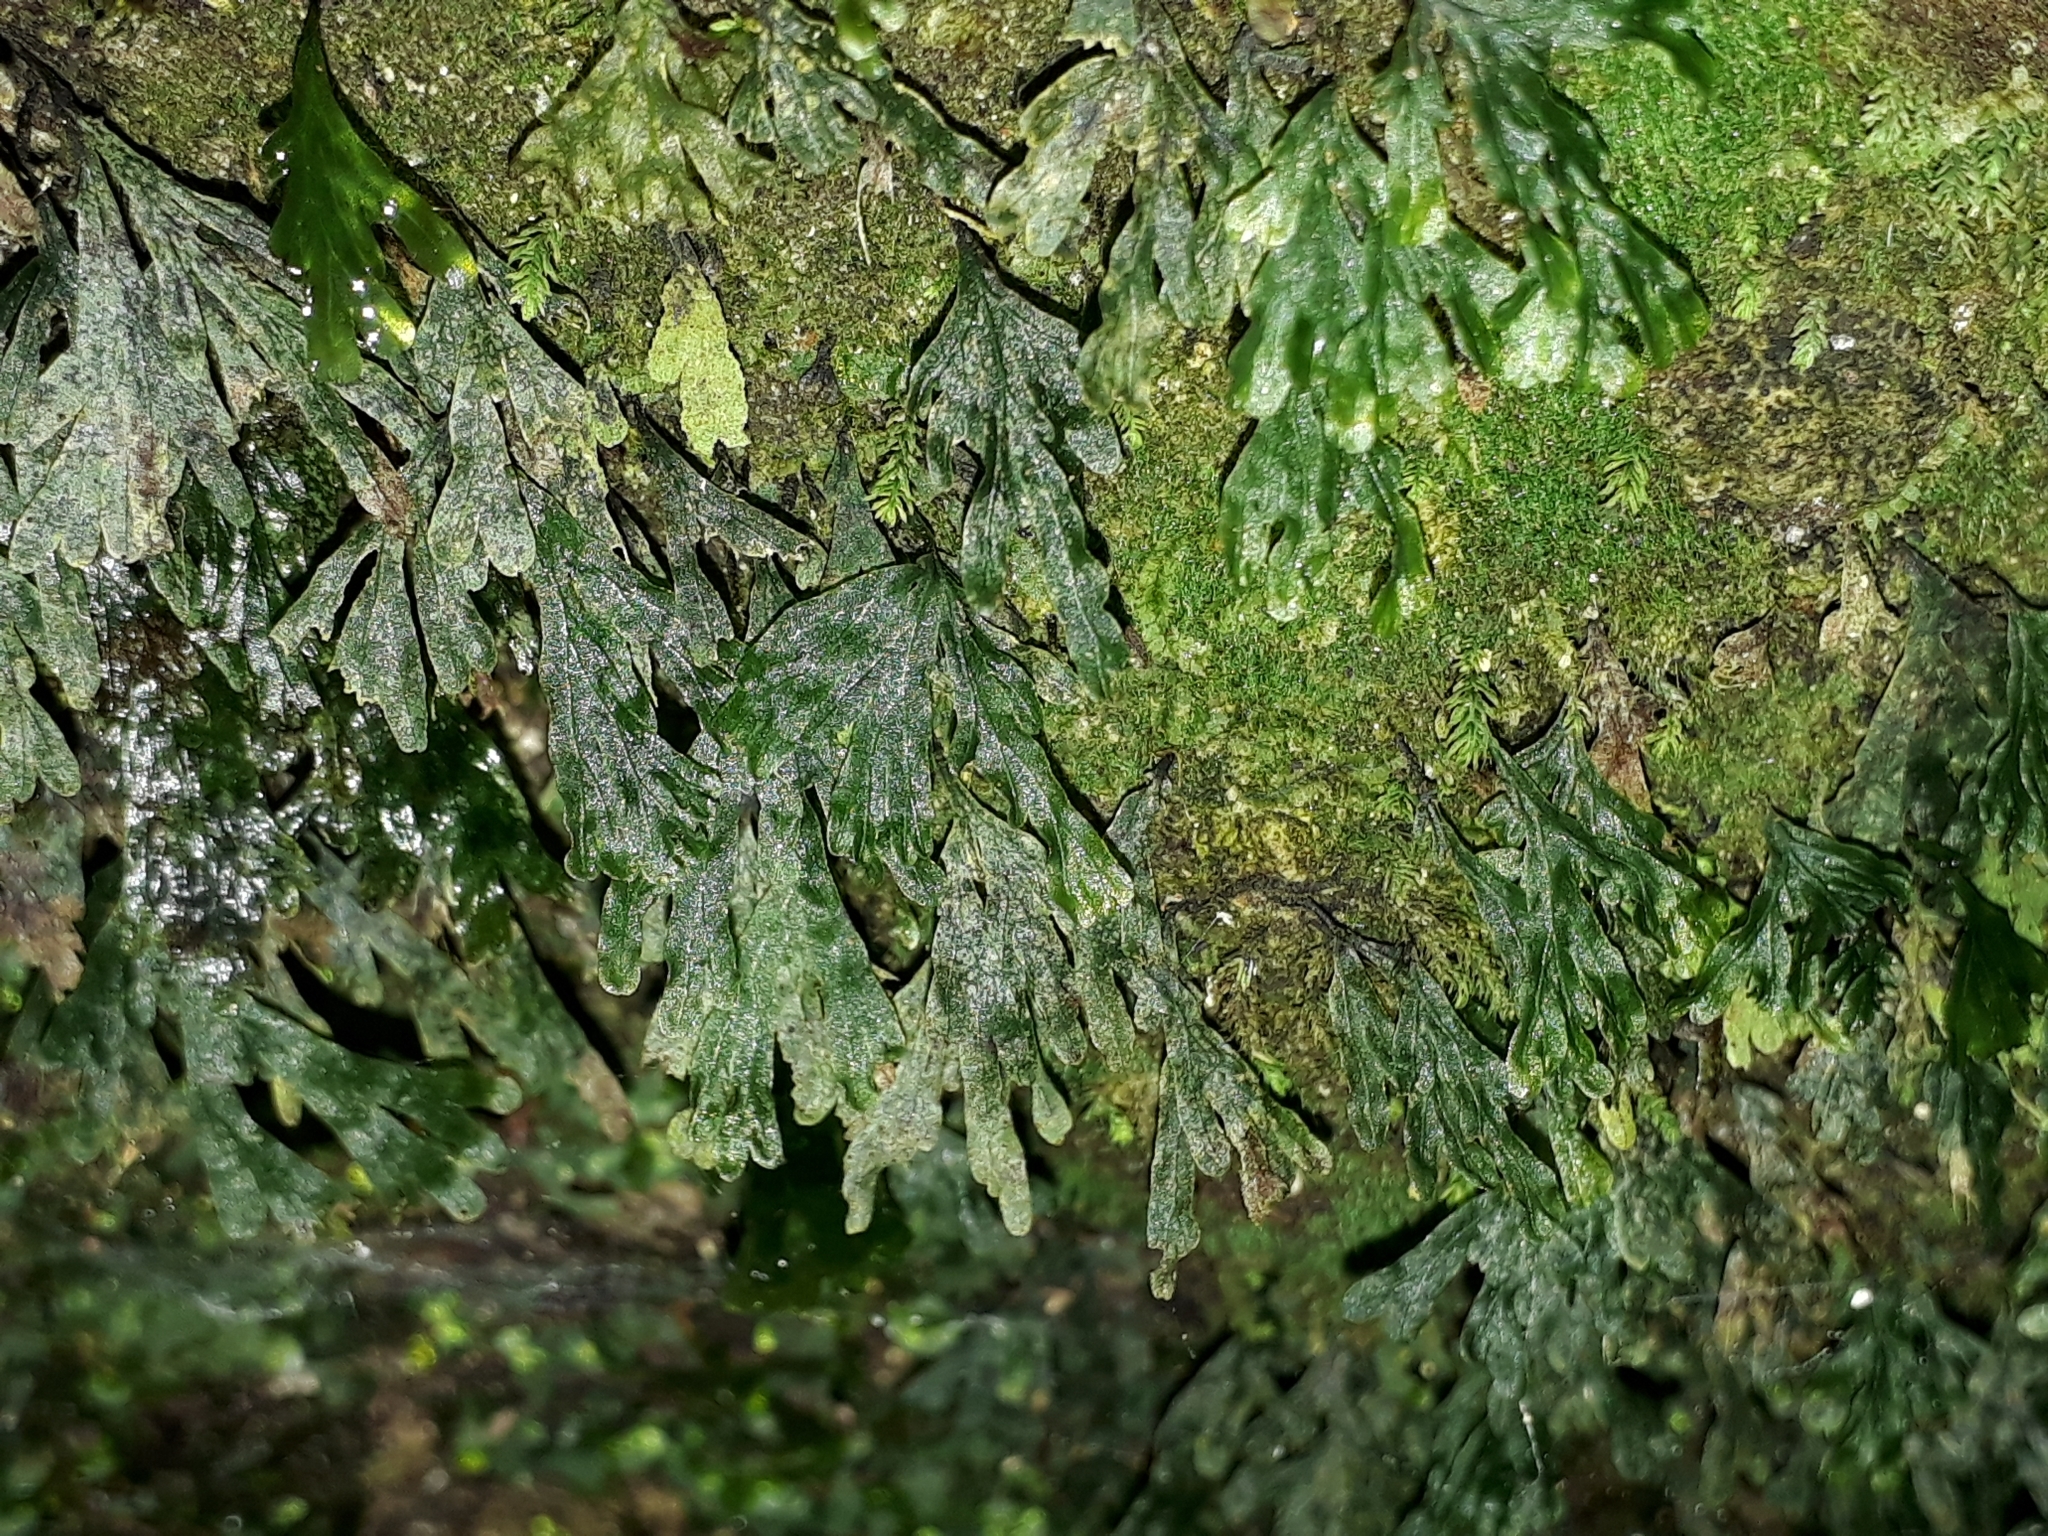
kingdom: Plantae
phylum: Tracheophyta
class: Polypodiopsida
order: Hymenophyllales
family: Hymenophyllaceae
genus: Polyphlebium
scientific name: Polyphlebium endlicherianum
